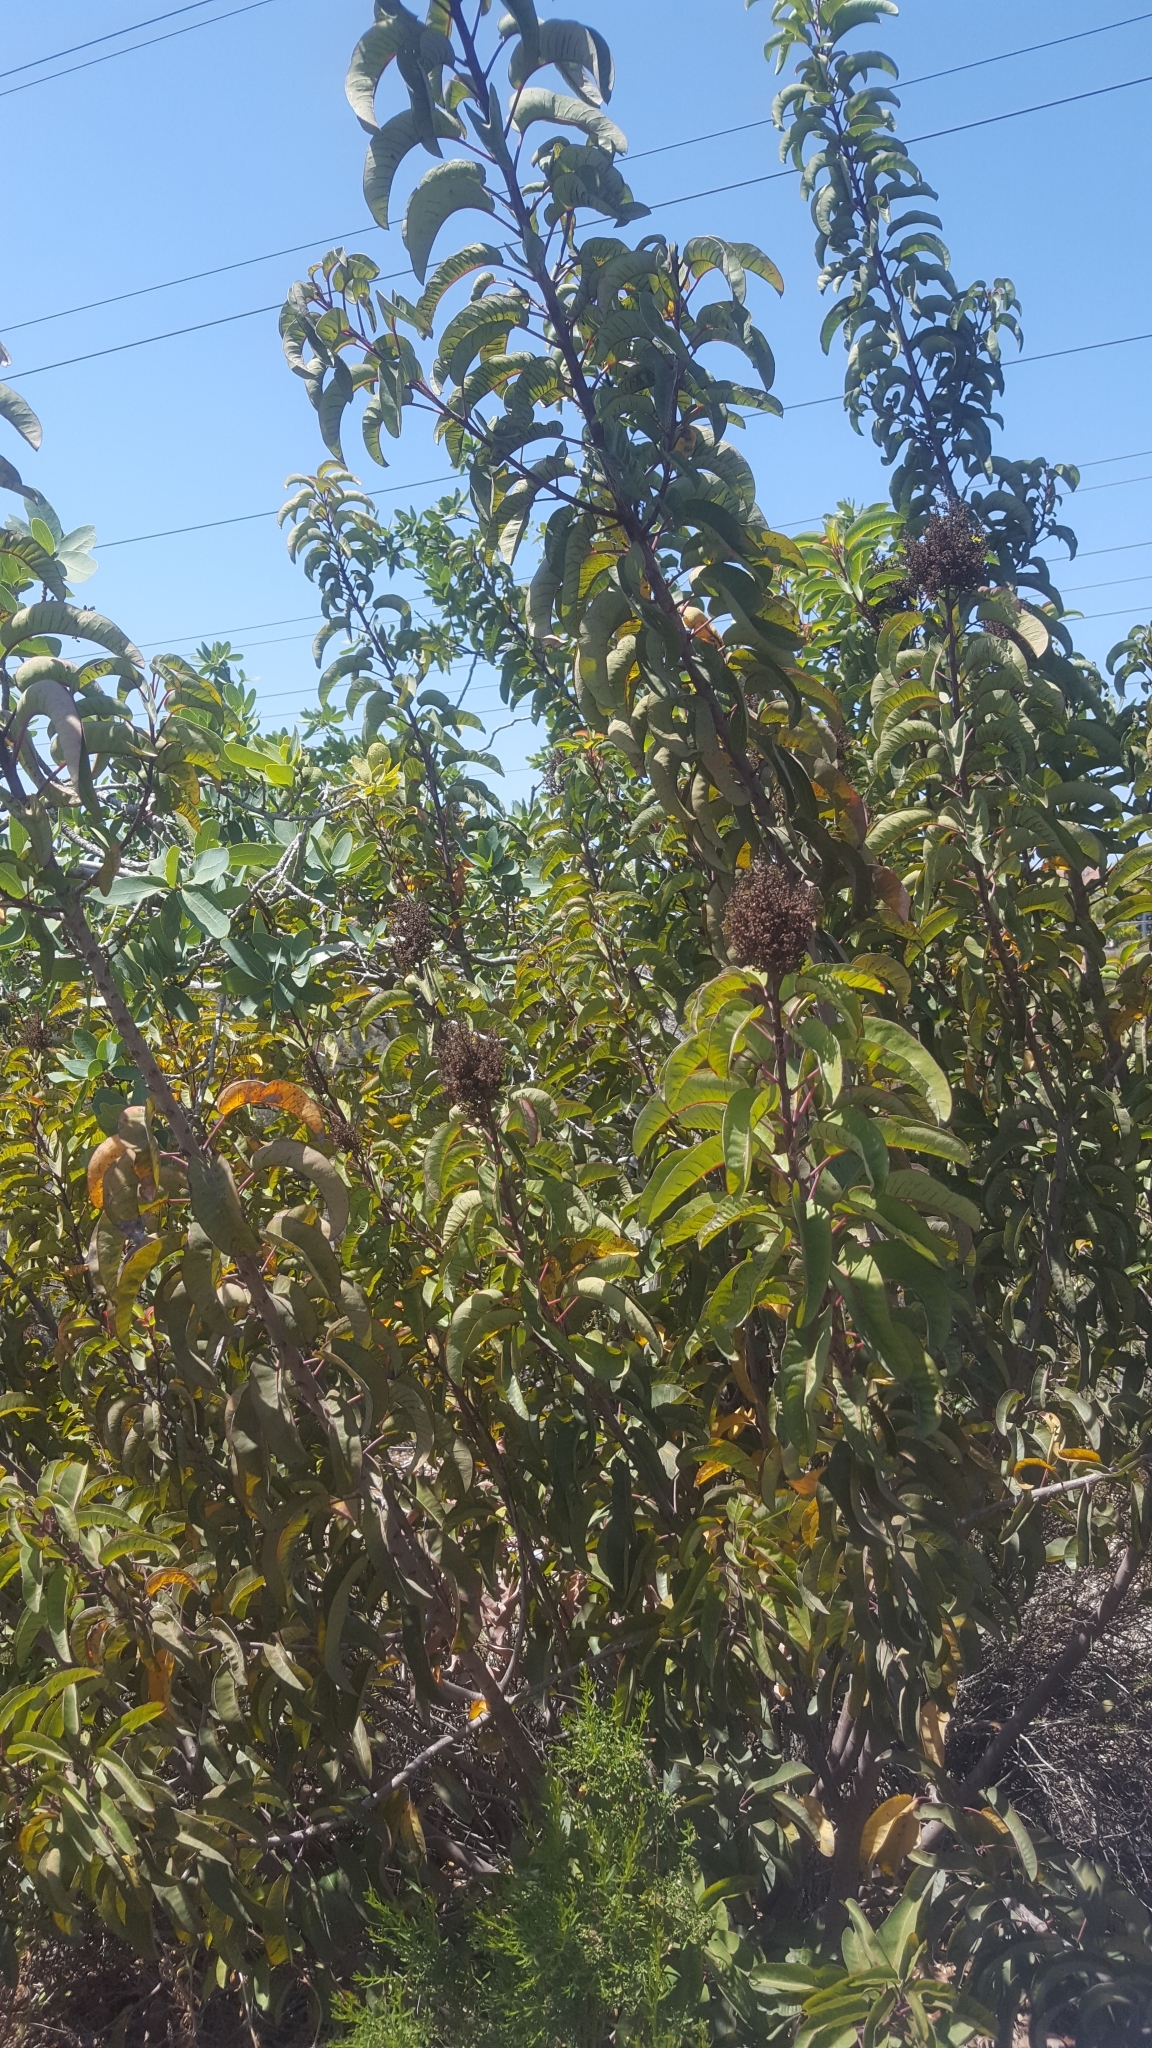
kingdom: Plantae
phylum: Tracheophyta
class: Magnoliopsida
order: Sapindales
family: Anacardiaceae
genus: Malosma
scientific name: Malosma laurina
